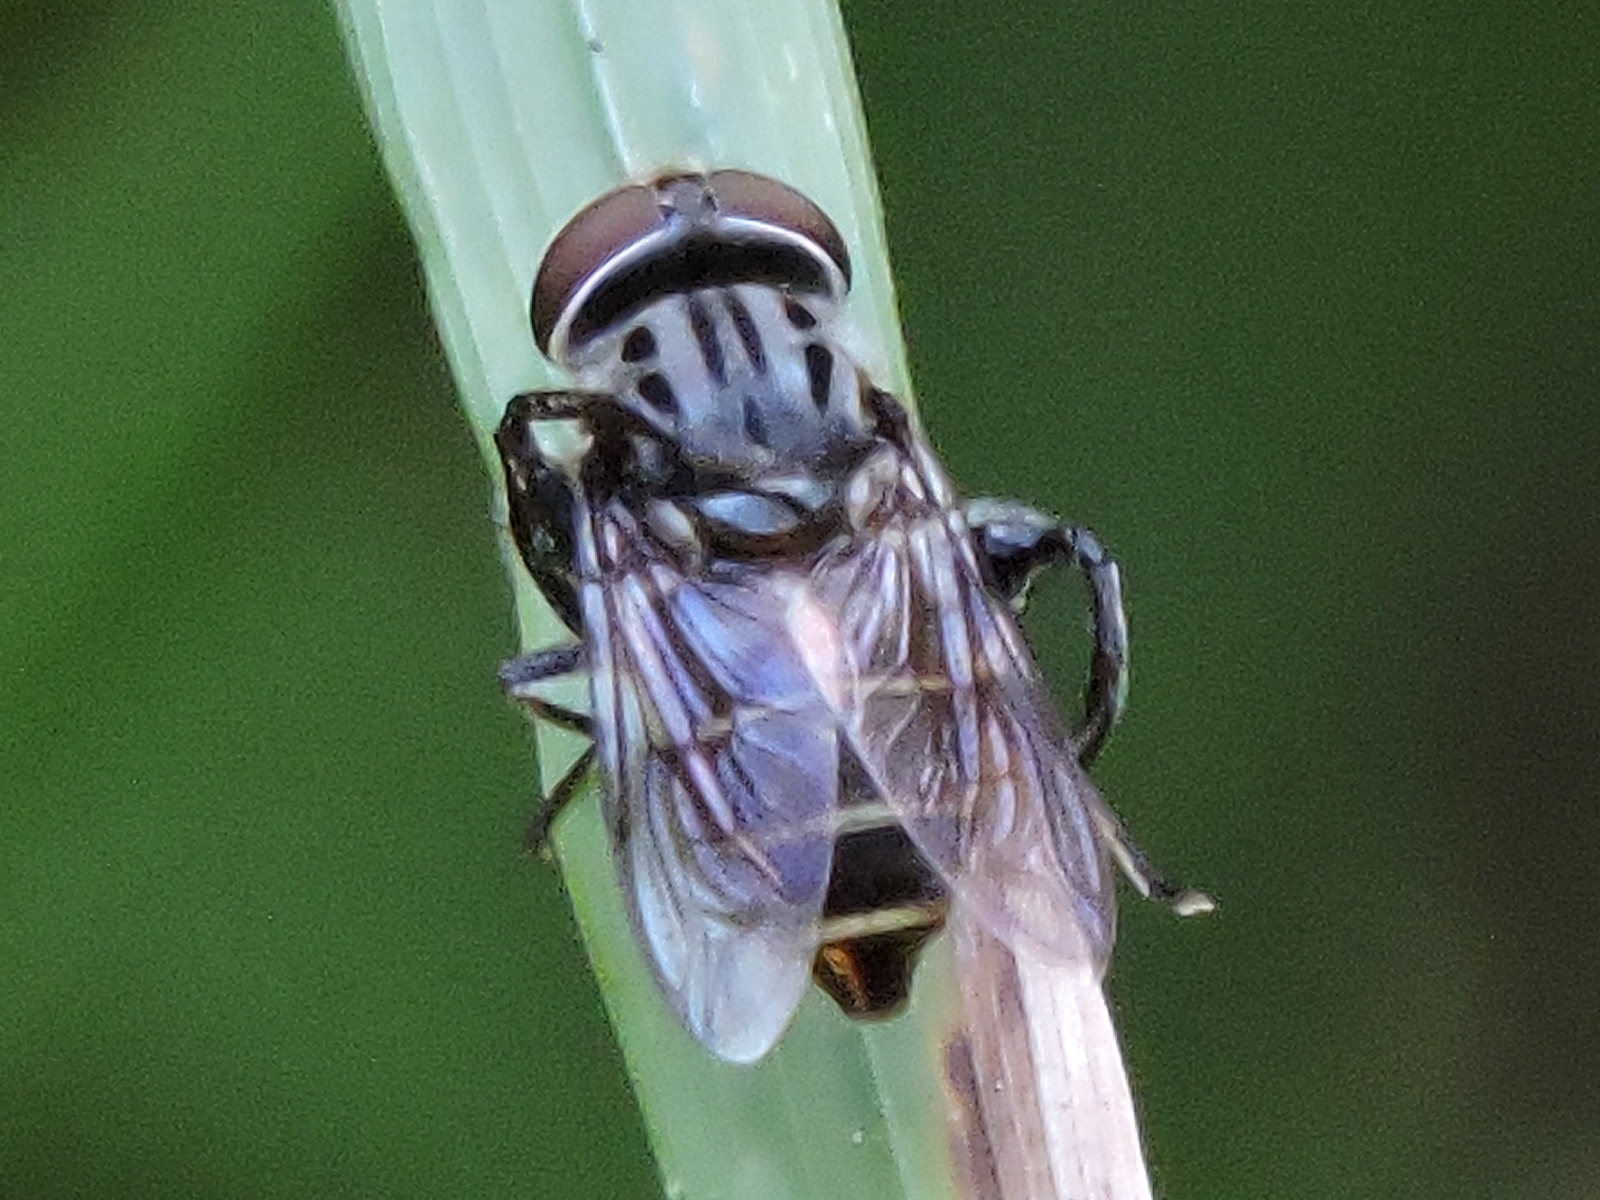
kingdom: Animalia
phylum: Arthropoda
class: Insecta
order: Diptera
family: Syrphidae
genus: Palpada
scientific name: Palpada furcata
